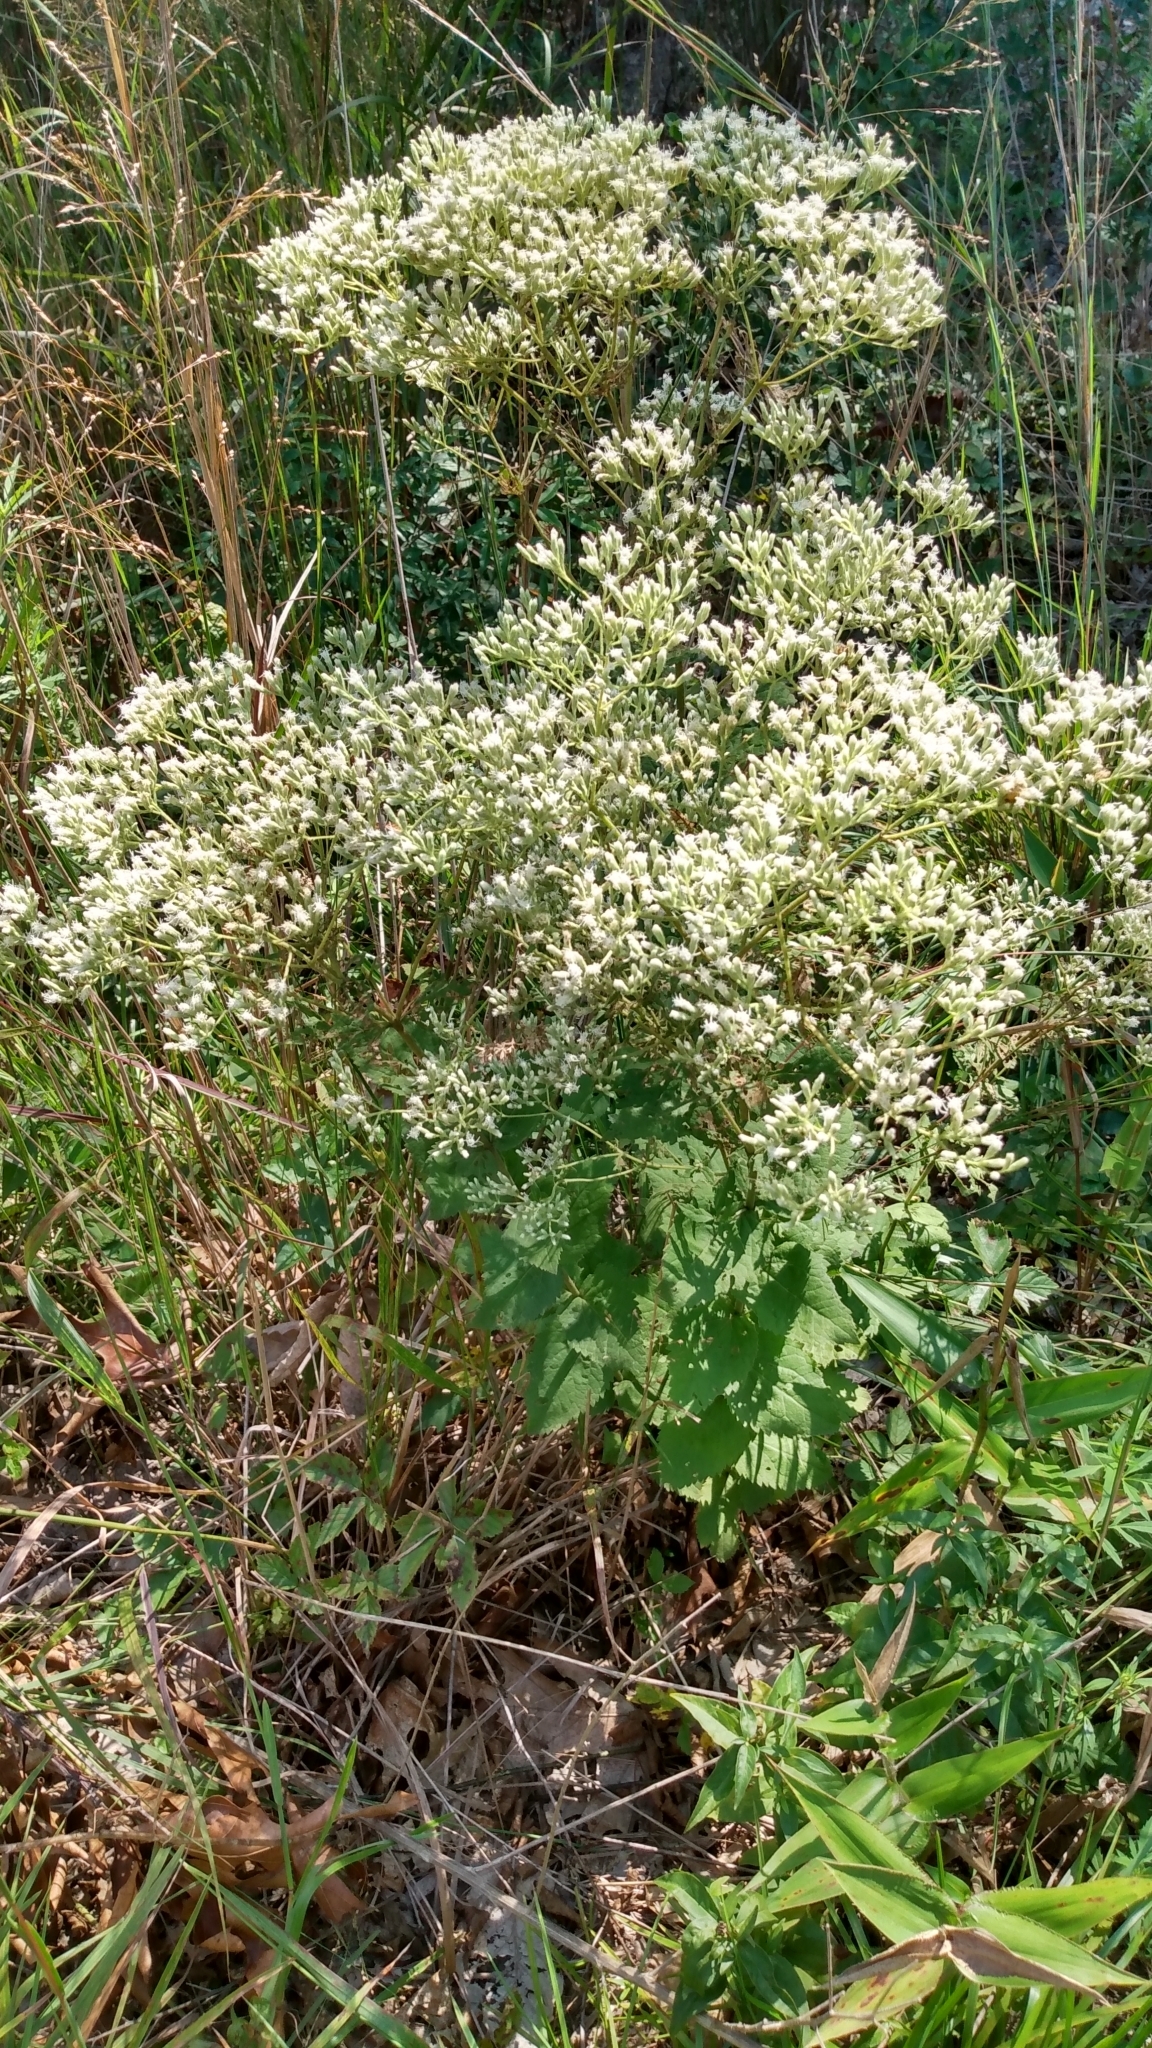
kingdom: Plantae
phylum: Tracheophyta
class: Magnoliopsida
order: Asterales
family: Asteraceae
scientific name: Asteraceae
